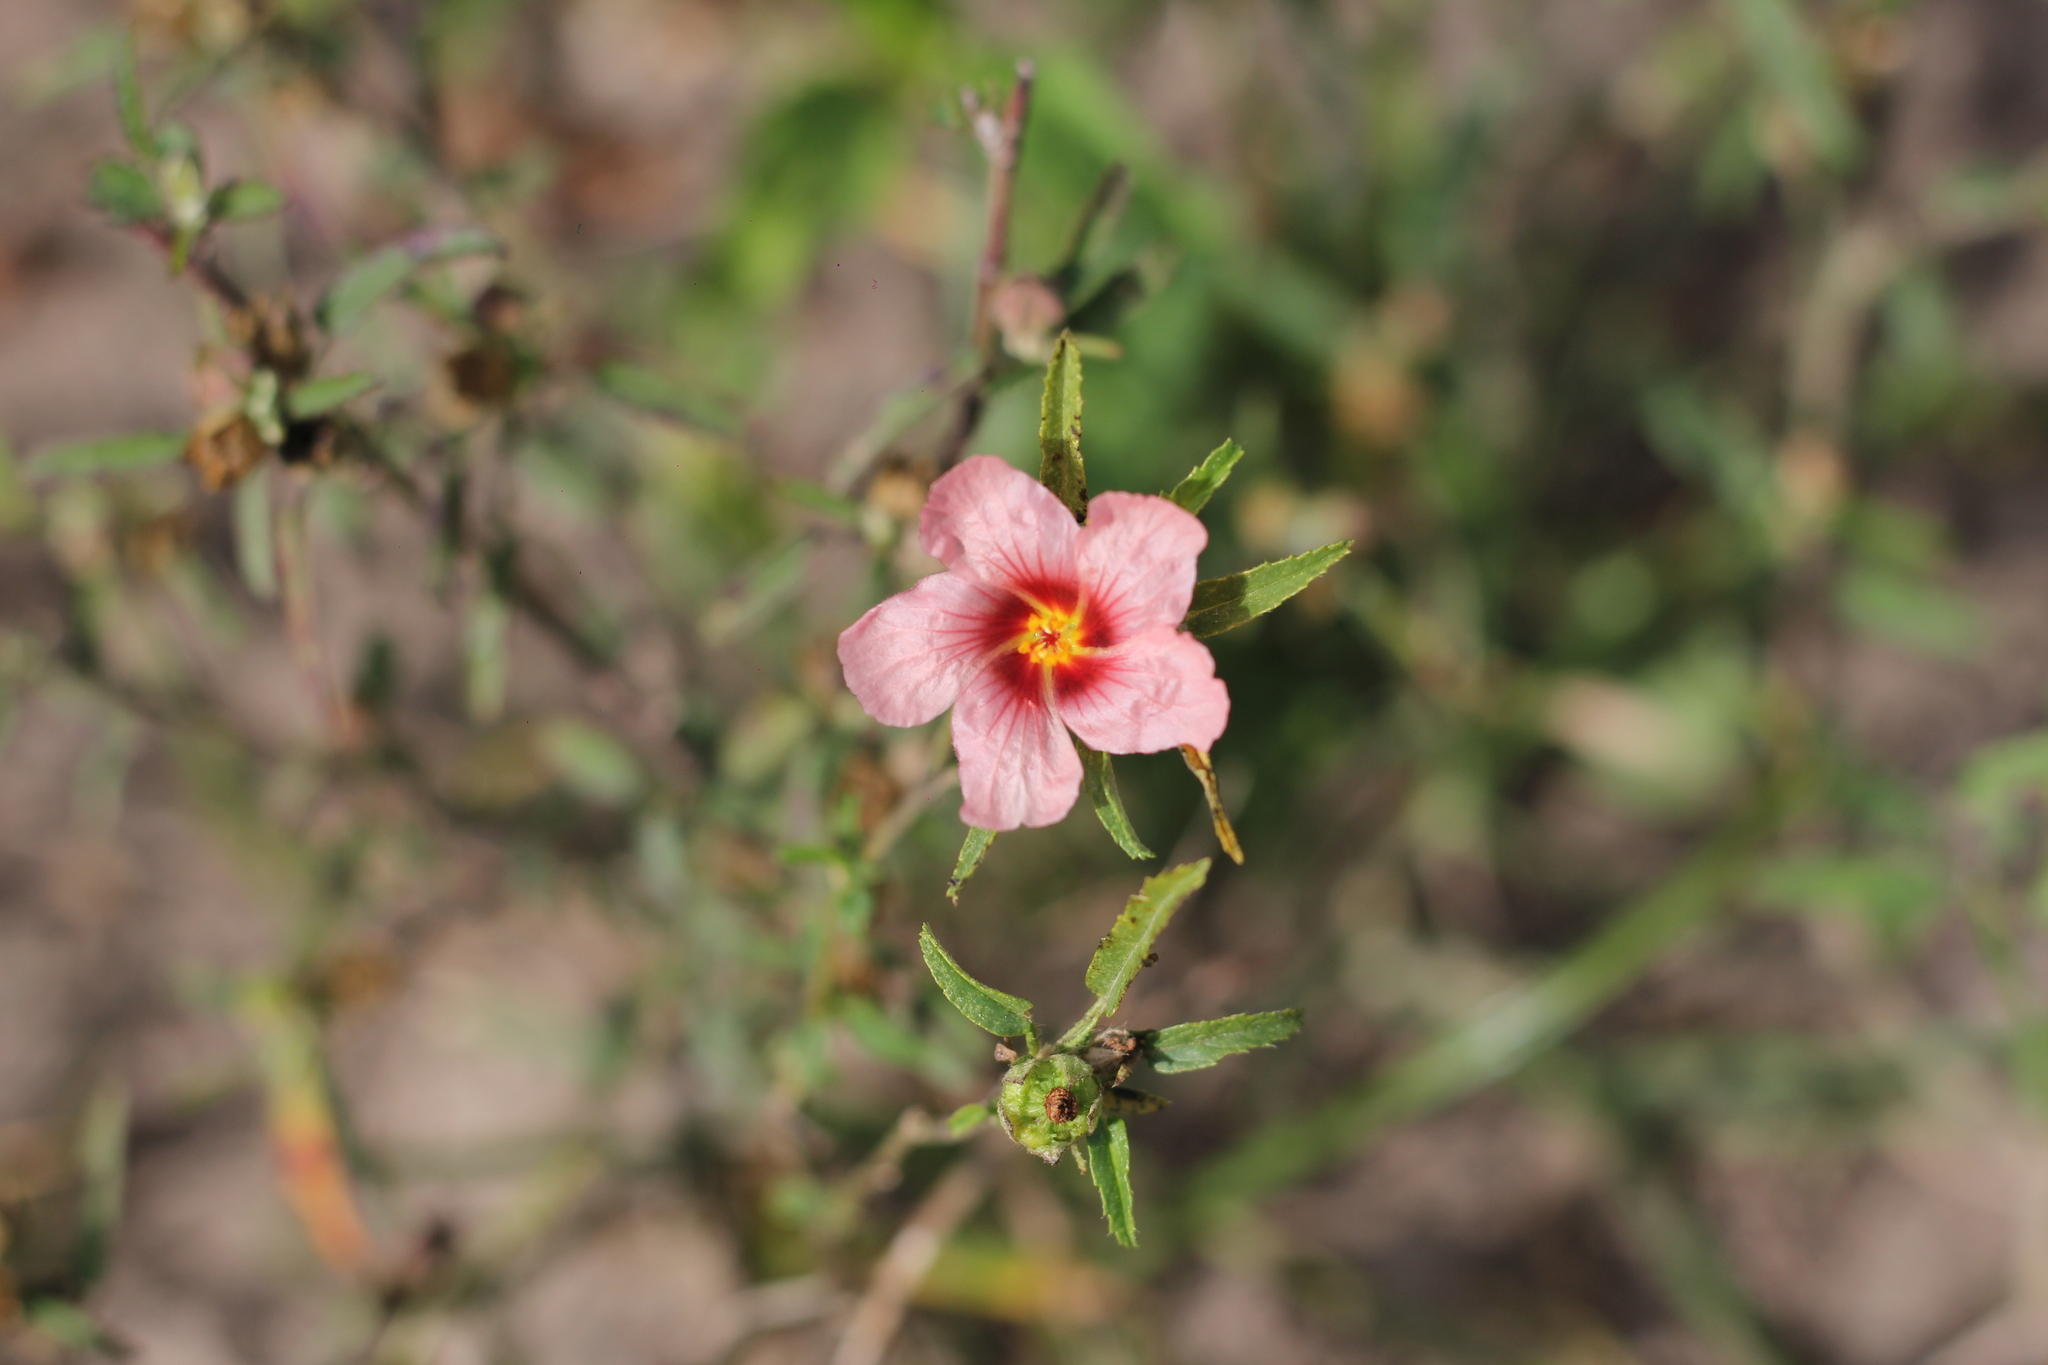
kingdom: Plantae
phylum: Tracheophyta
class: Magnoliopsida
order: Malvales
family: Malvaceae
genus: Sida
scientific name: Sida anomala
